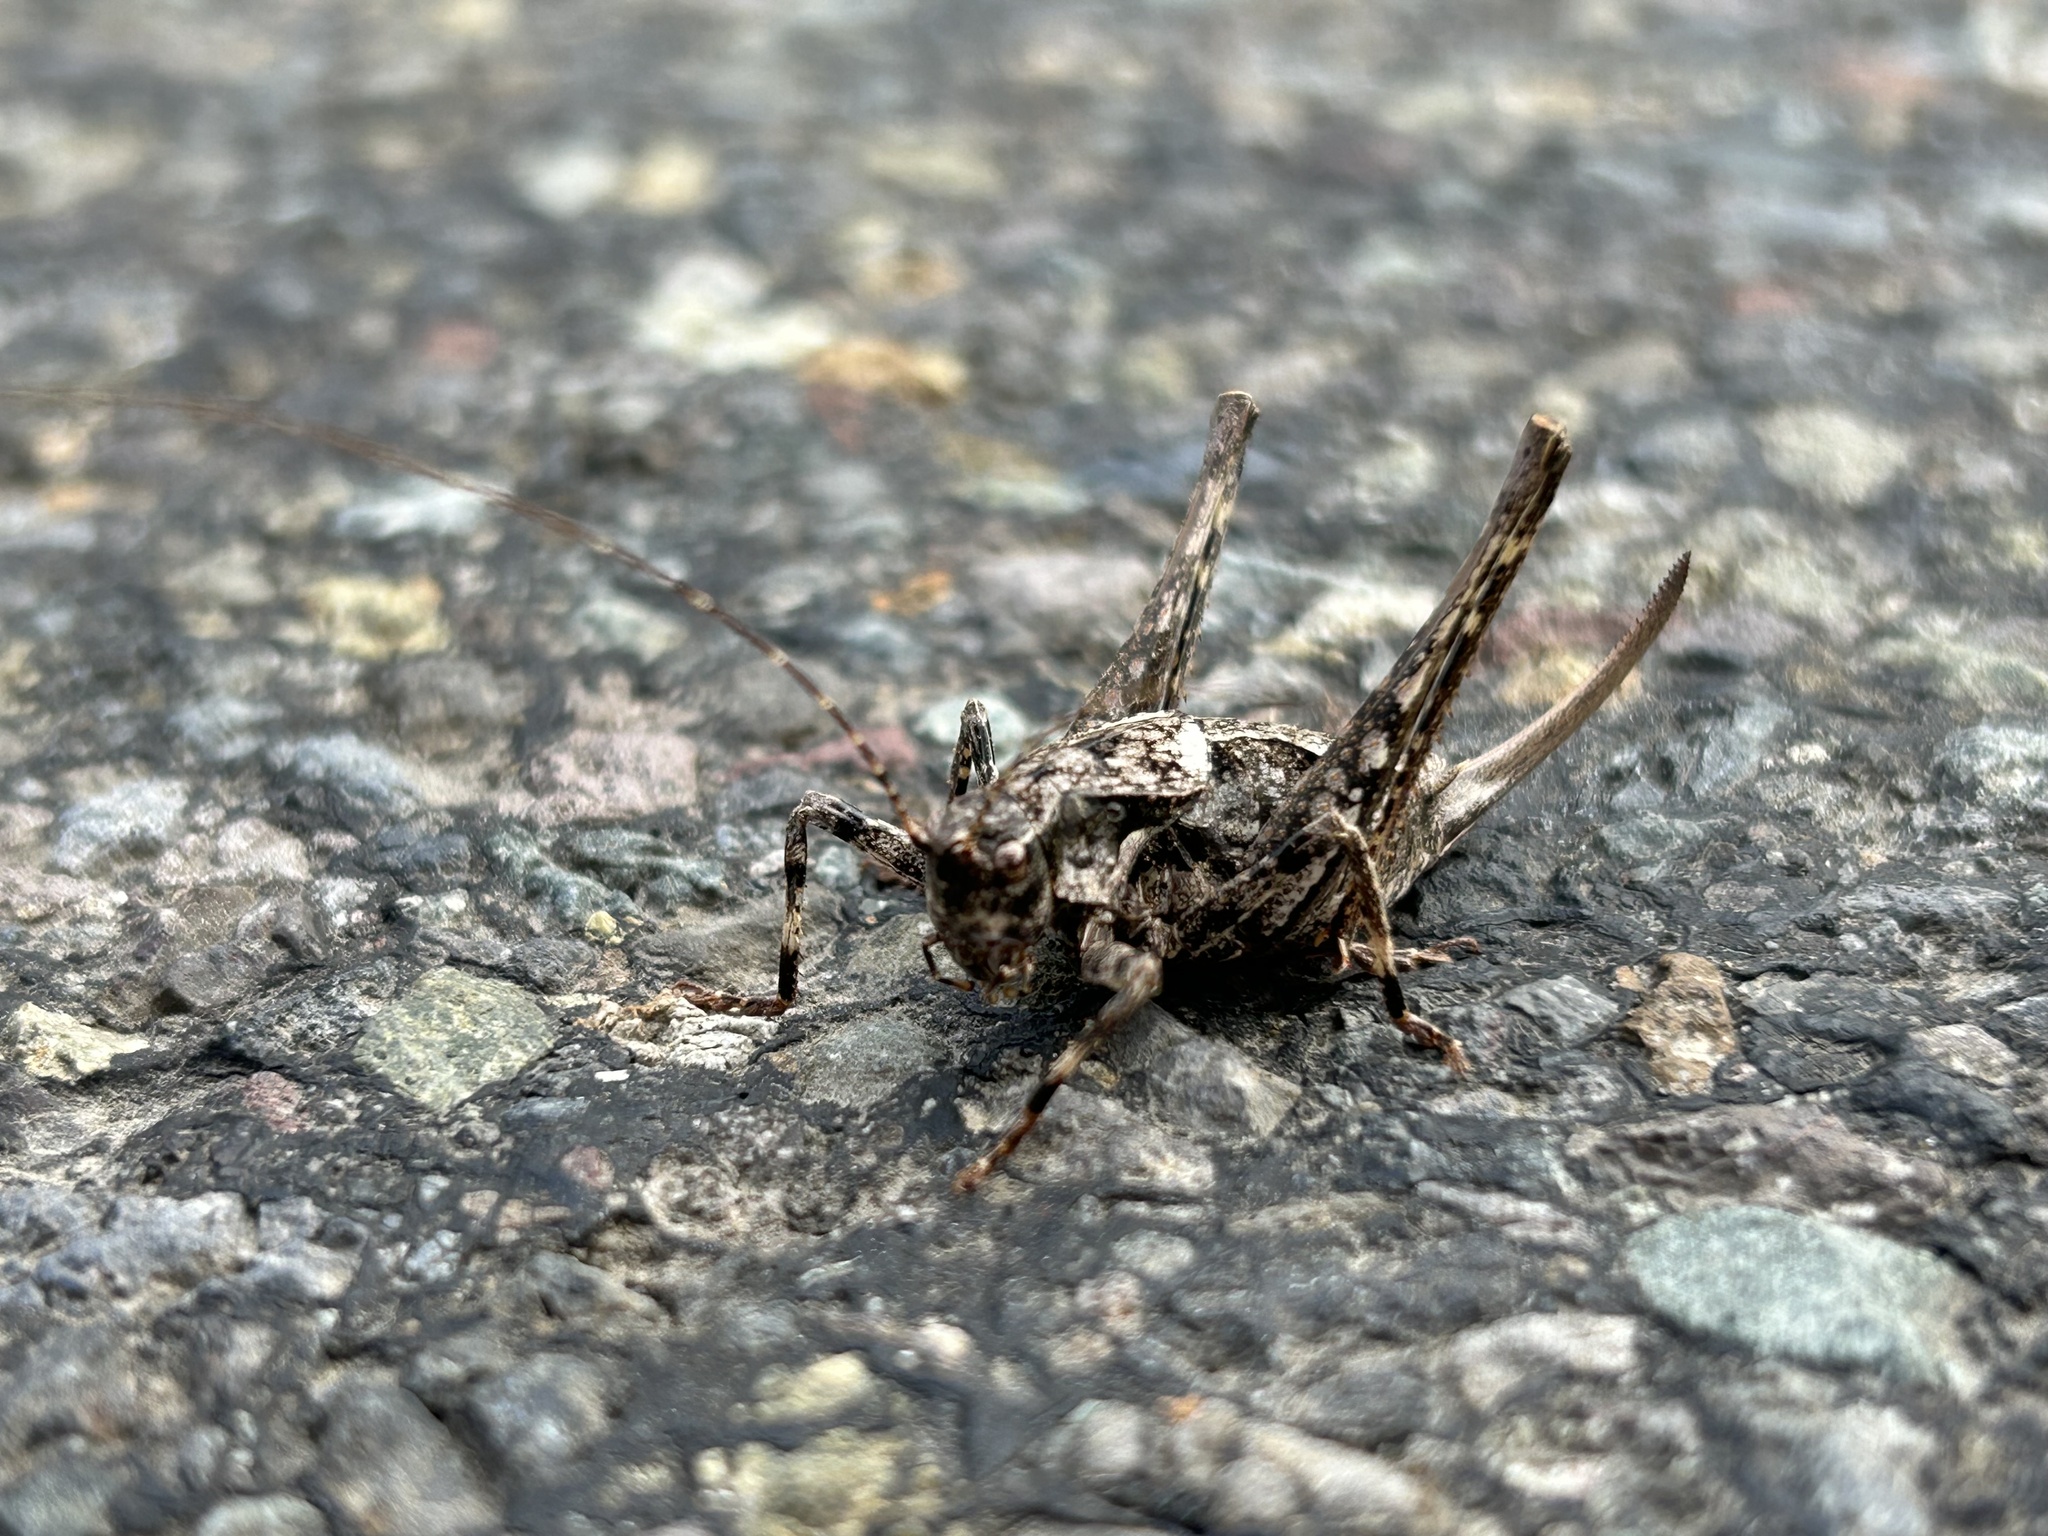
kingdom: Animalia
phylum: Arthropoda
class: Insecta
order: Orthoptera
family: Tettigoniidae
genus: Neduba
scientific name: Neduba steindachneri
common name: Steindachner's shieldback
